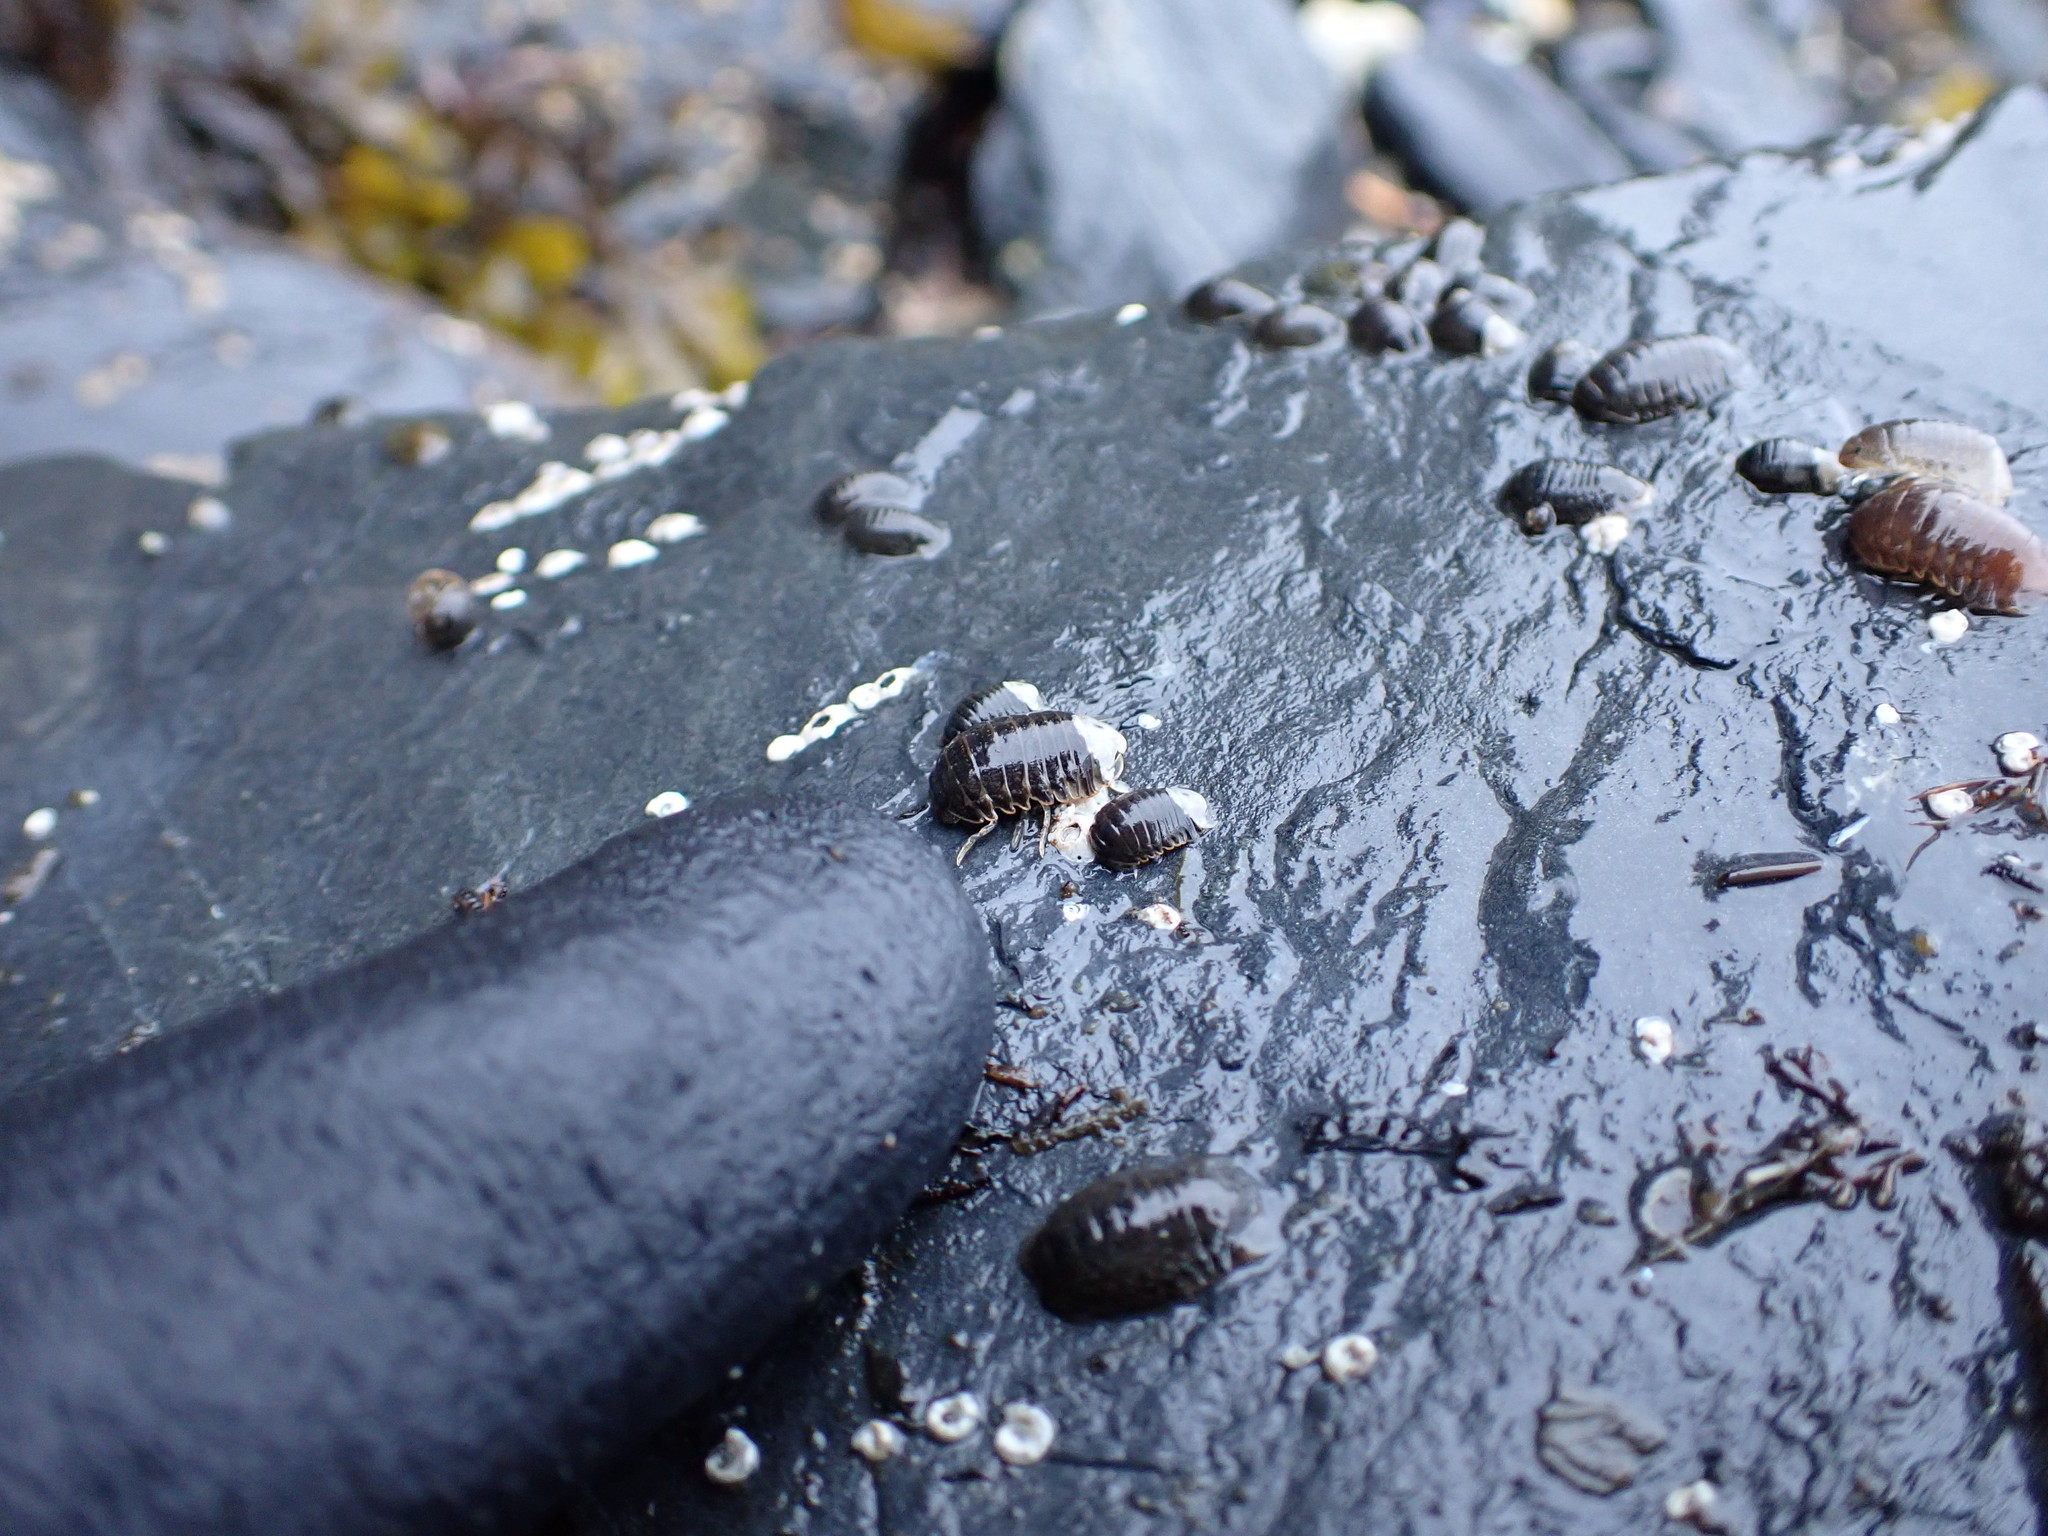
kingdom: Animalia
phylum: Arthropoda
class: Malacostraca
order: Isopoda
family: Sphaeromatidae
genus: Gnorimosphaeroma
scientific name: Gnorimosphaeroma oregonense
